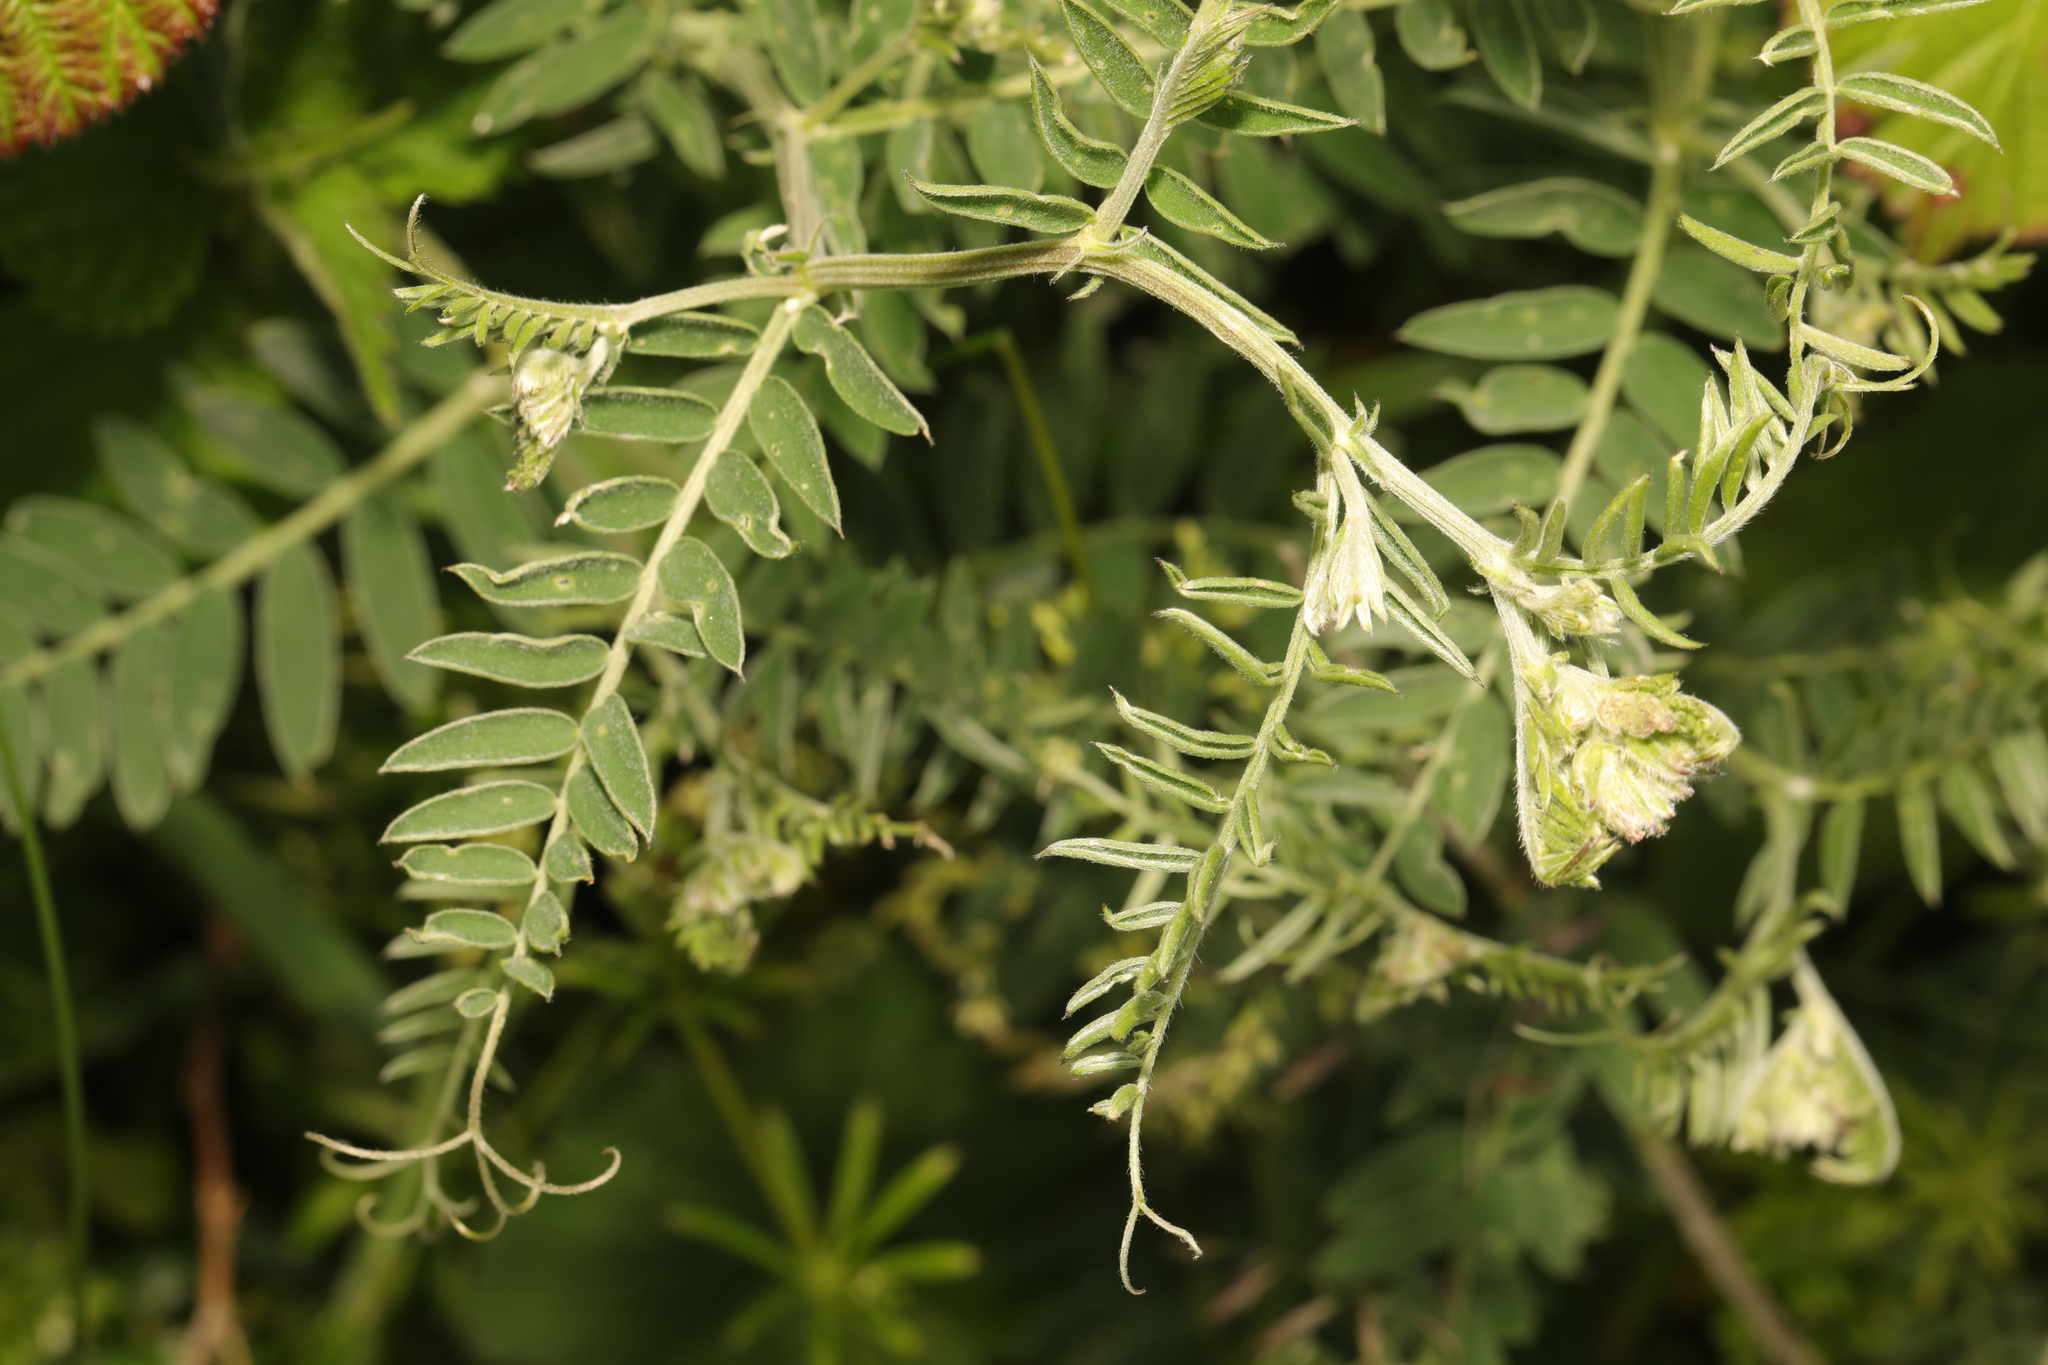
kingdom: Plantae
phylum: Tracheophyta
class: Magnoliopsida
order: Fabales
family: Fabaceae
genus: Vicia
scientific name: Vicia cracca
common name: Bird vetch
